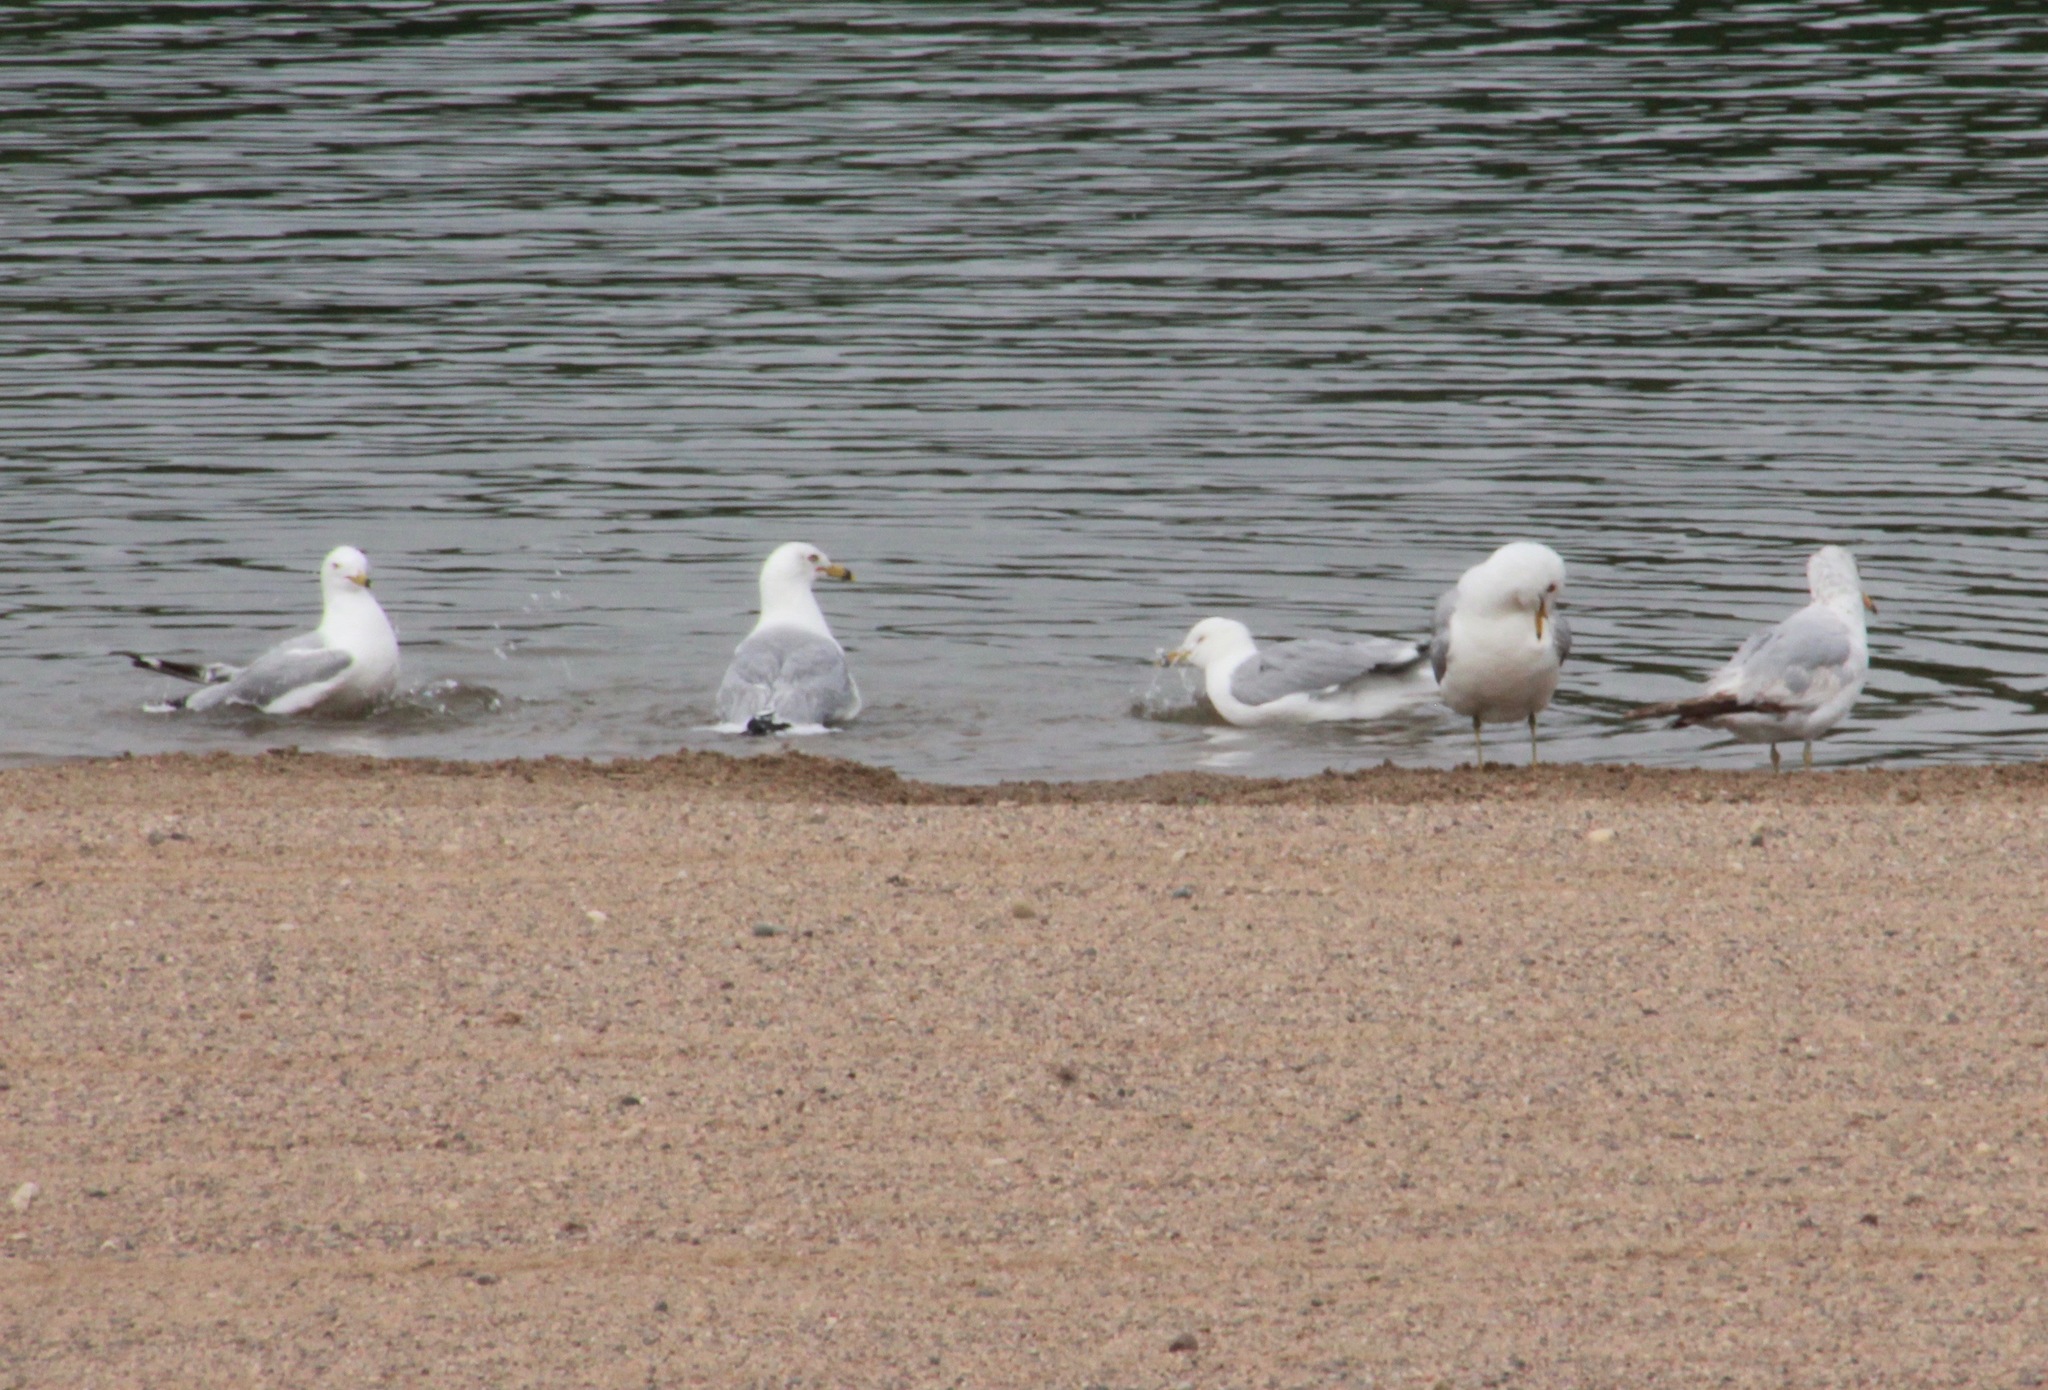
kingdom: Animalia
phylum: Chordata
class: Aves
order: Charadriiformes
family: Laridae
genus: Larus
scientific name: Larus delawarensis
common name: Ring-billed gull
